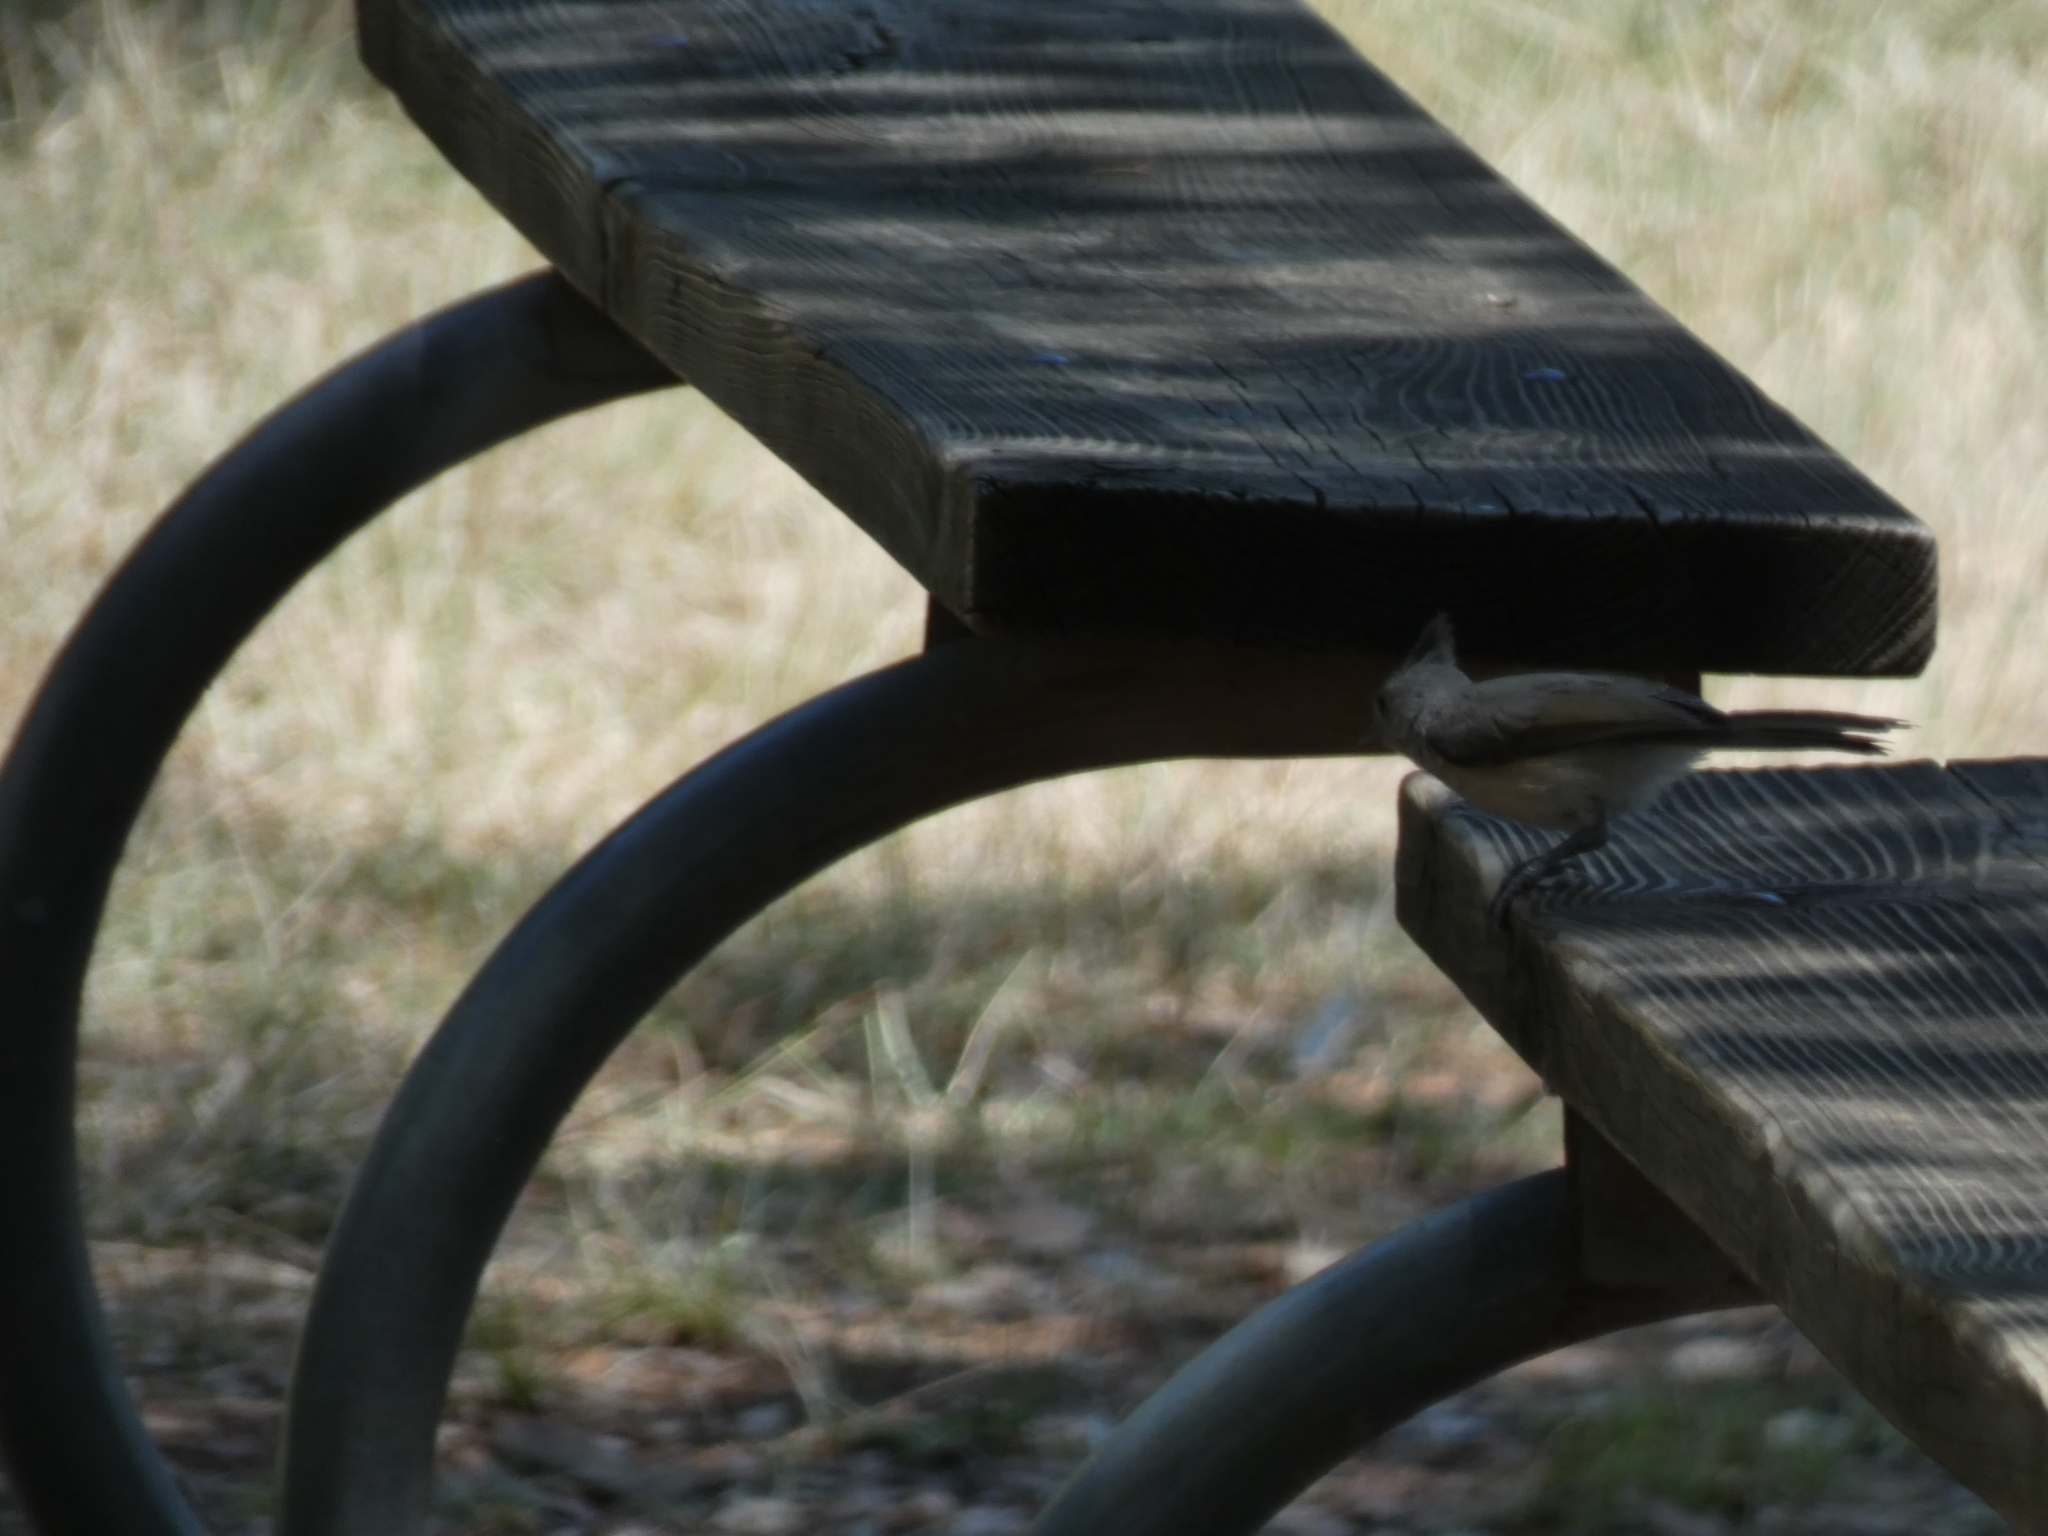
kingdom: Animalia
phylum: Chordata
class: Aves
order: Passeriformes
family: Paridae
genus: Baeolophus
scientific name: Baeolophus atricristatus
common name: Black-crested titmouse
